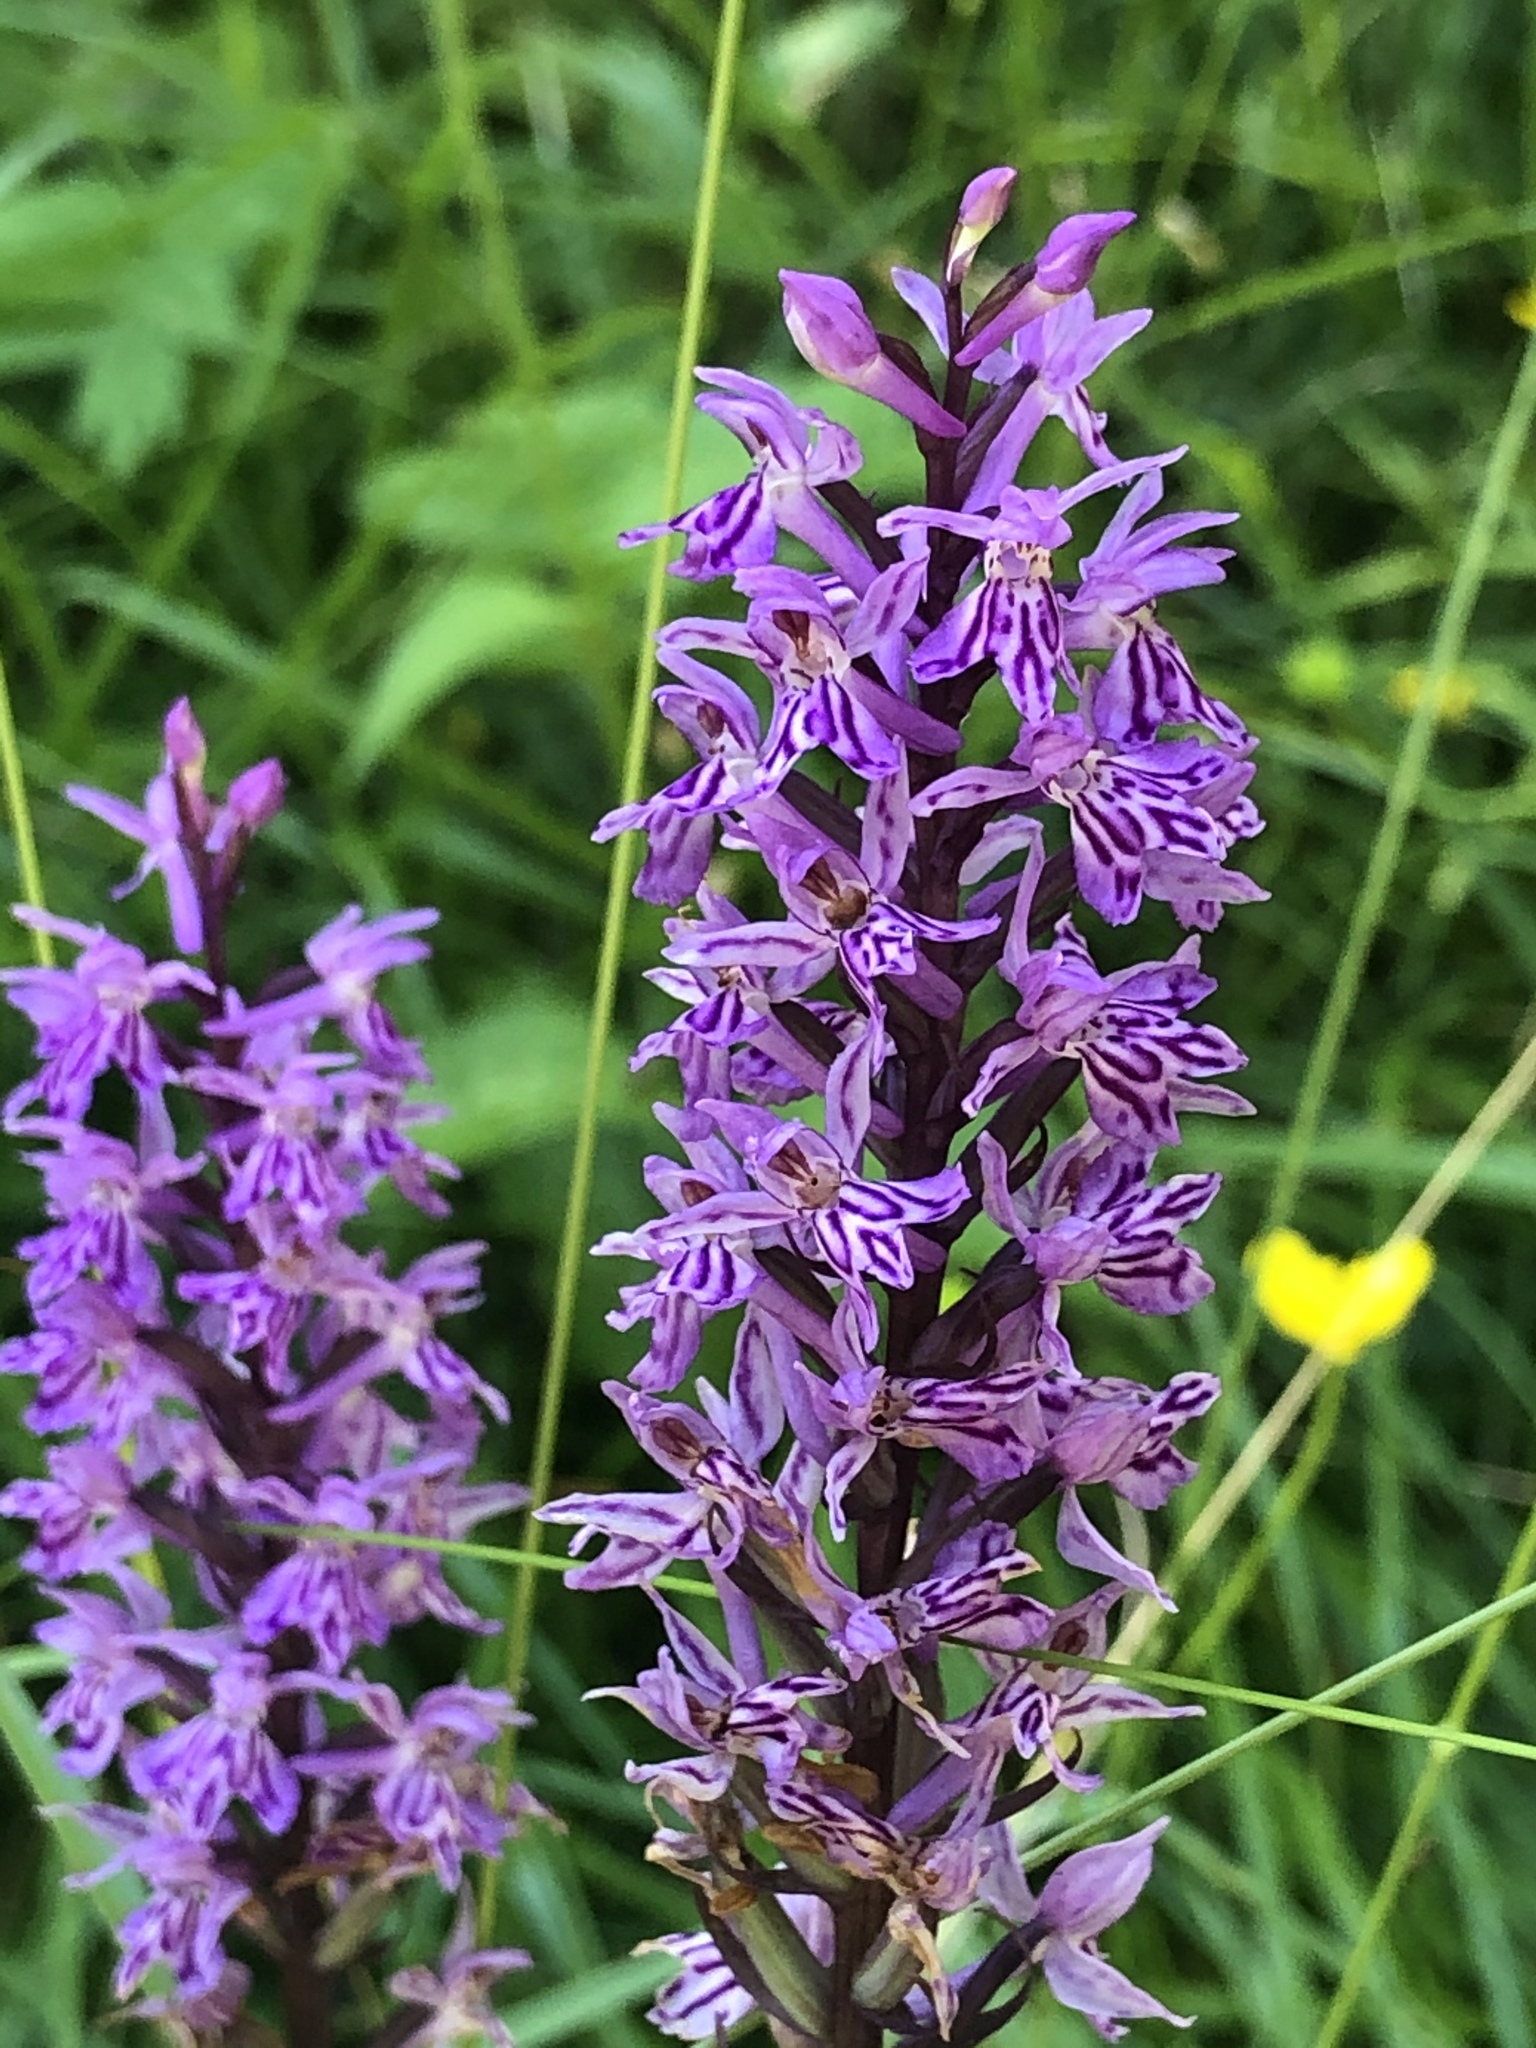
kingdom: Plantae
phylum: Tracheophyta
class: Liliopsida
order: Asparagales
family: Orchidaceae
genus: Dactylorhiza
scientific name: Dactylorhiza maculata
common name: Heath spotted-orchid
